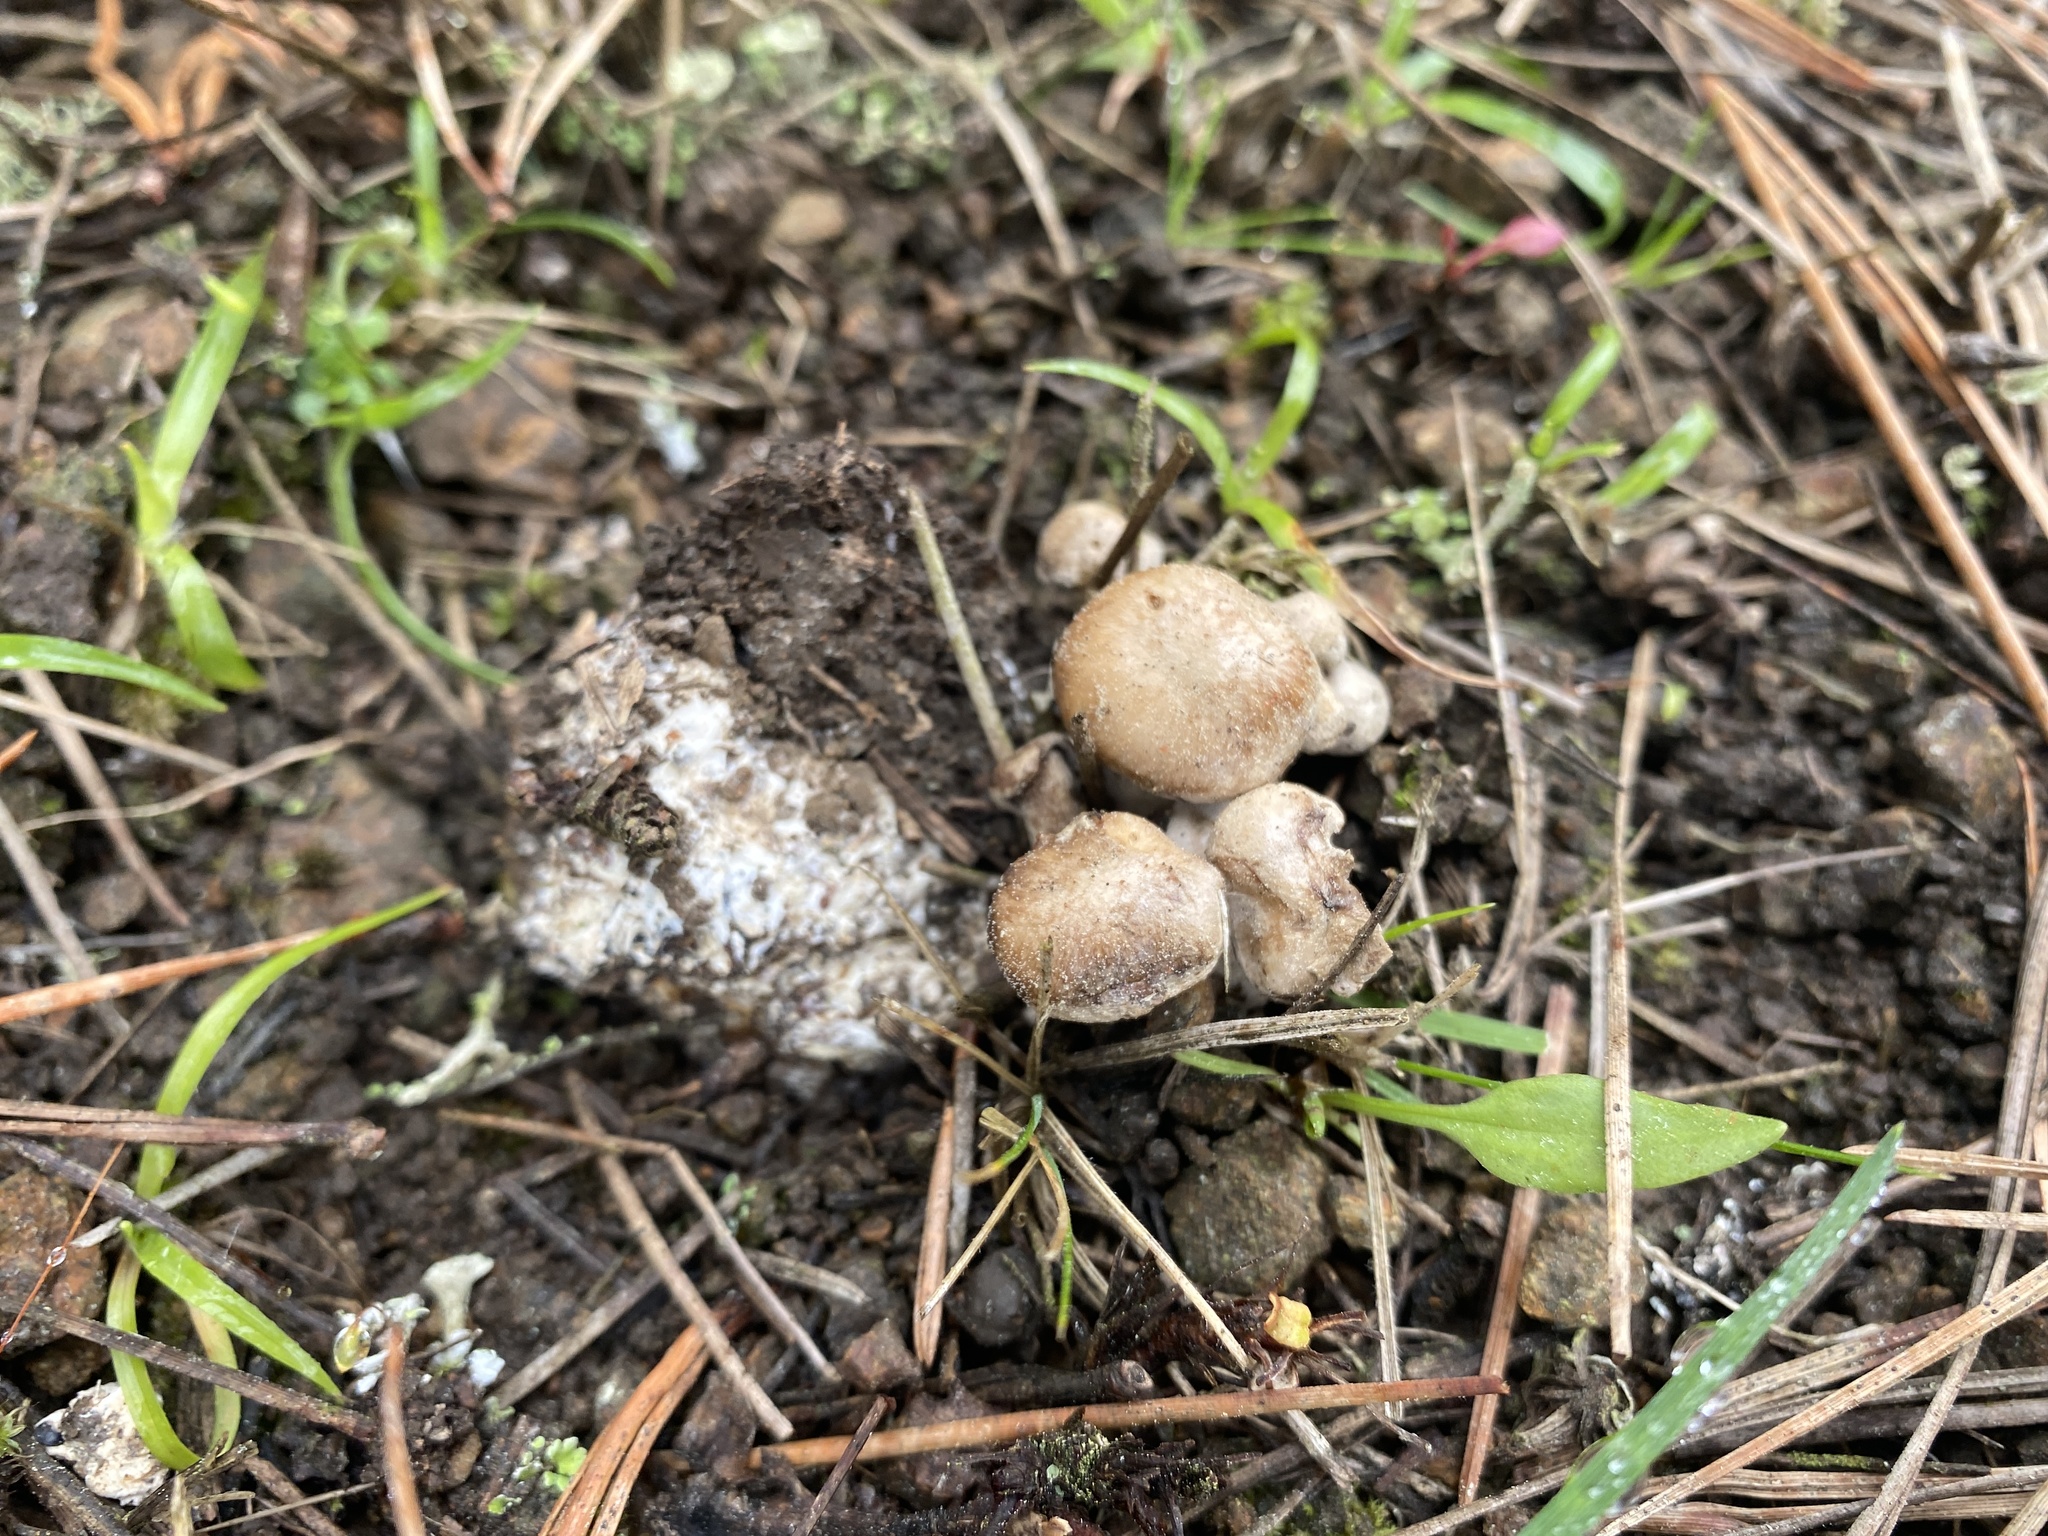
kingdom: Fungi
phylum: Basidiomycota
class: Agaricomycetes
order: Agaricales
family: Tricholomataceae
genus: Clitocybe
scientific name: Clitocybe sclerotoidea
